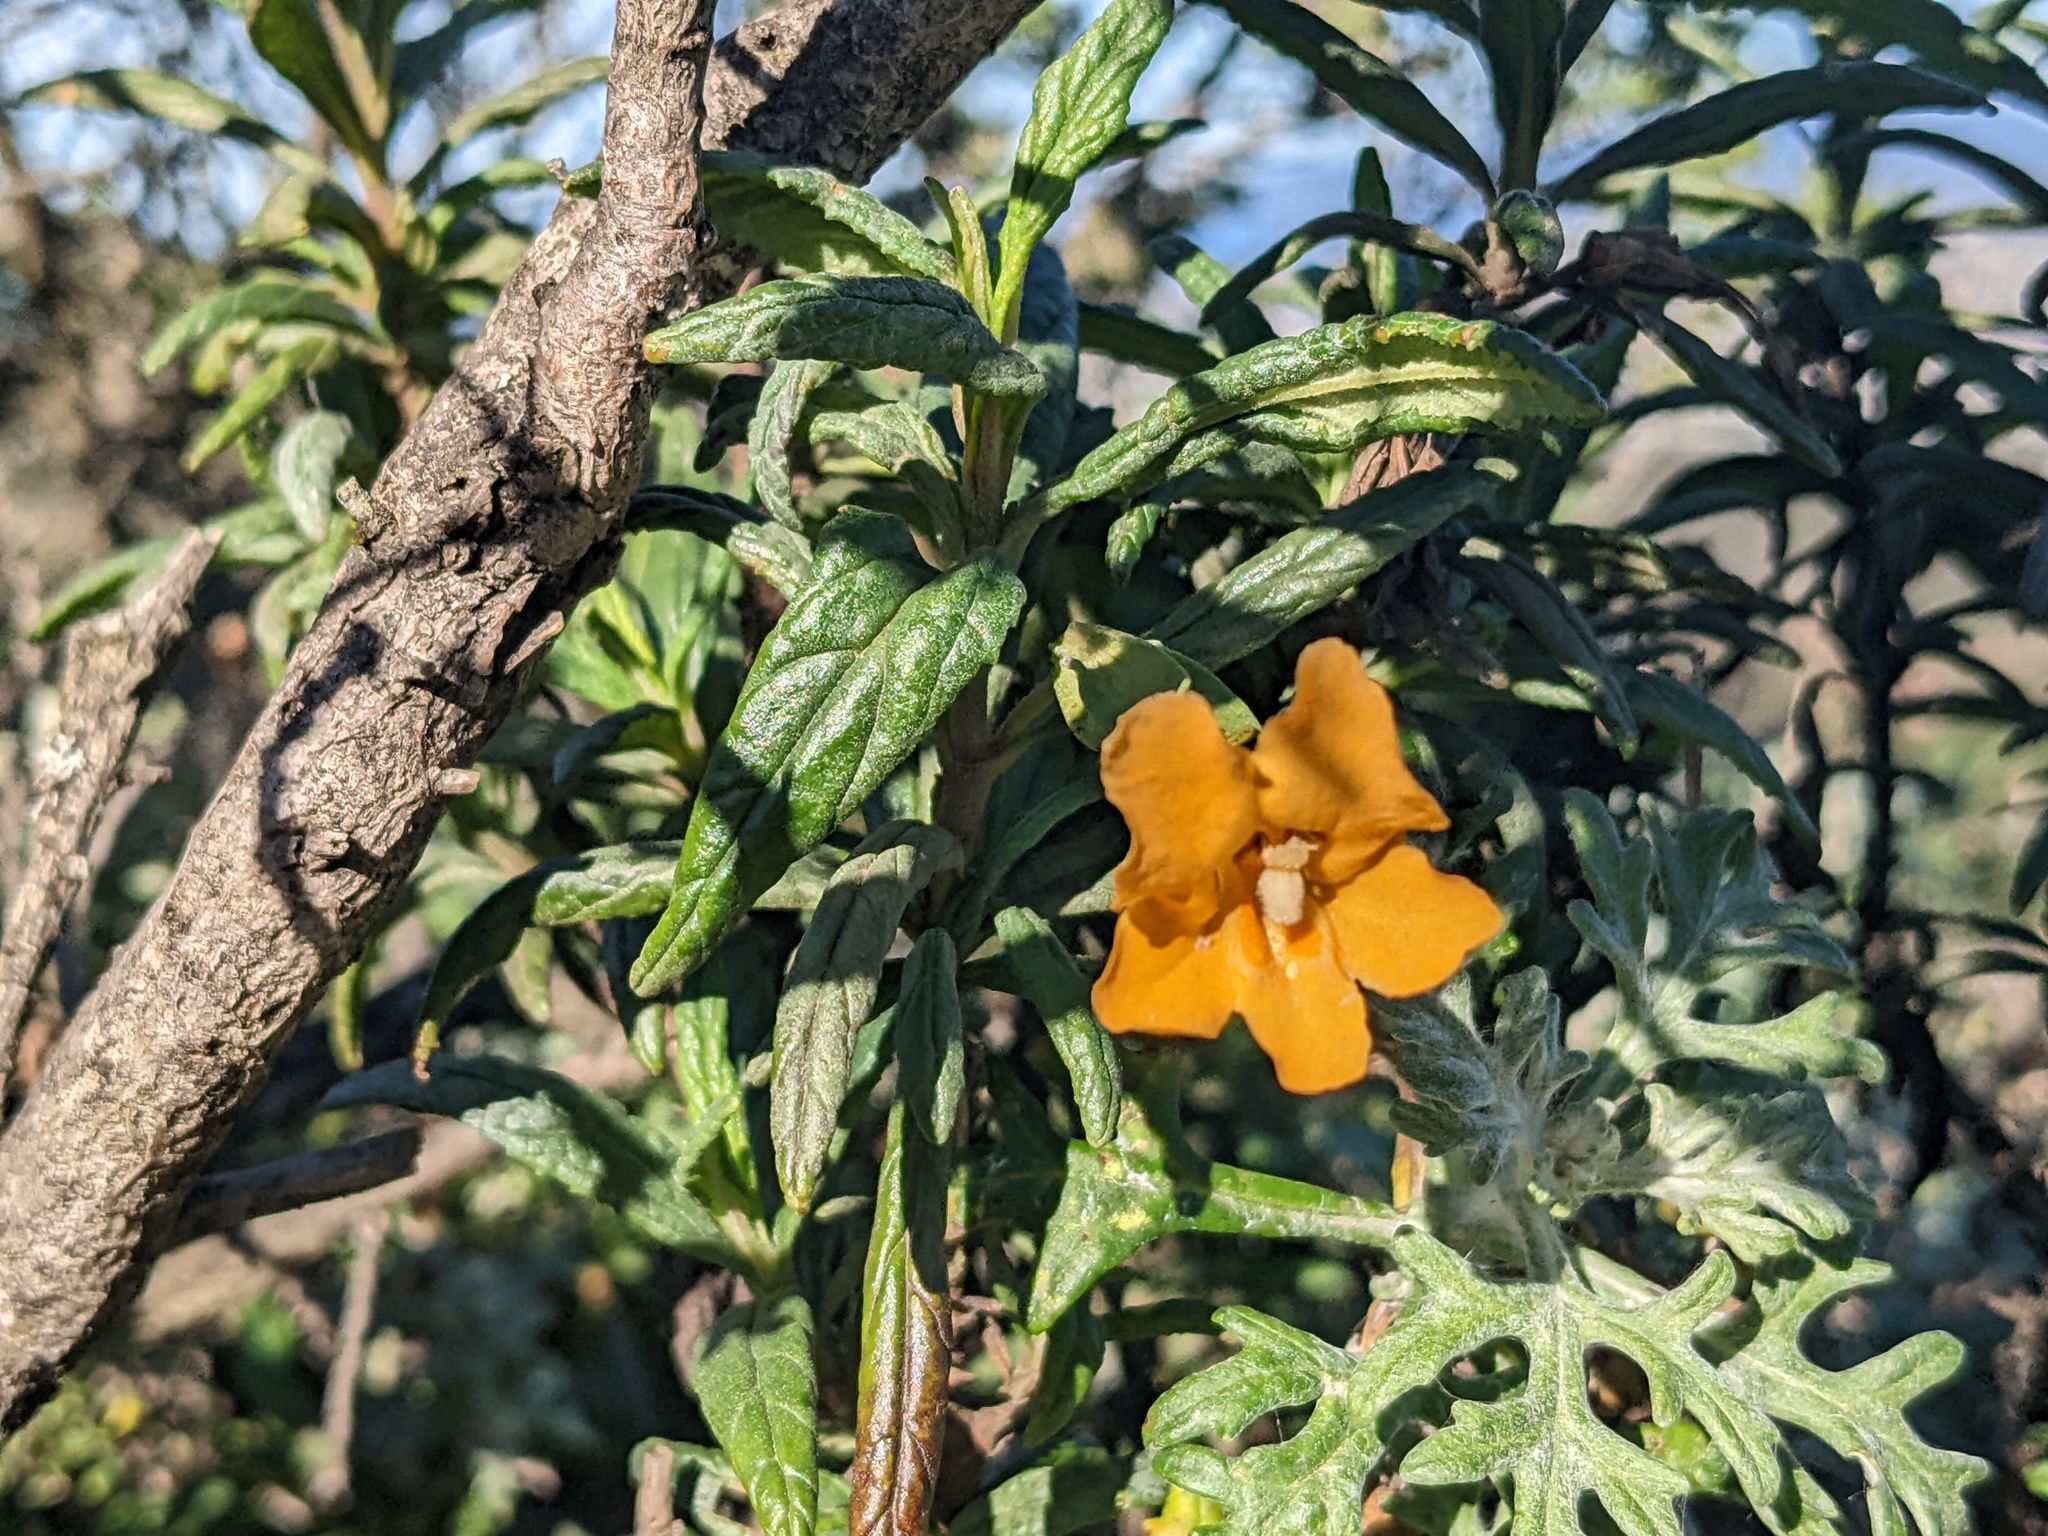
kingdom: Plantae
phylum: Tracheophyta
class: Magnoliopsida
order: Lamiales
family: Phrymaceae
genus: Diplacus
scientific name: Diplacus aurantiacus
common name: Bush monkey-flower
